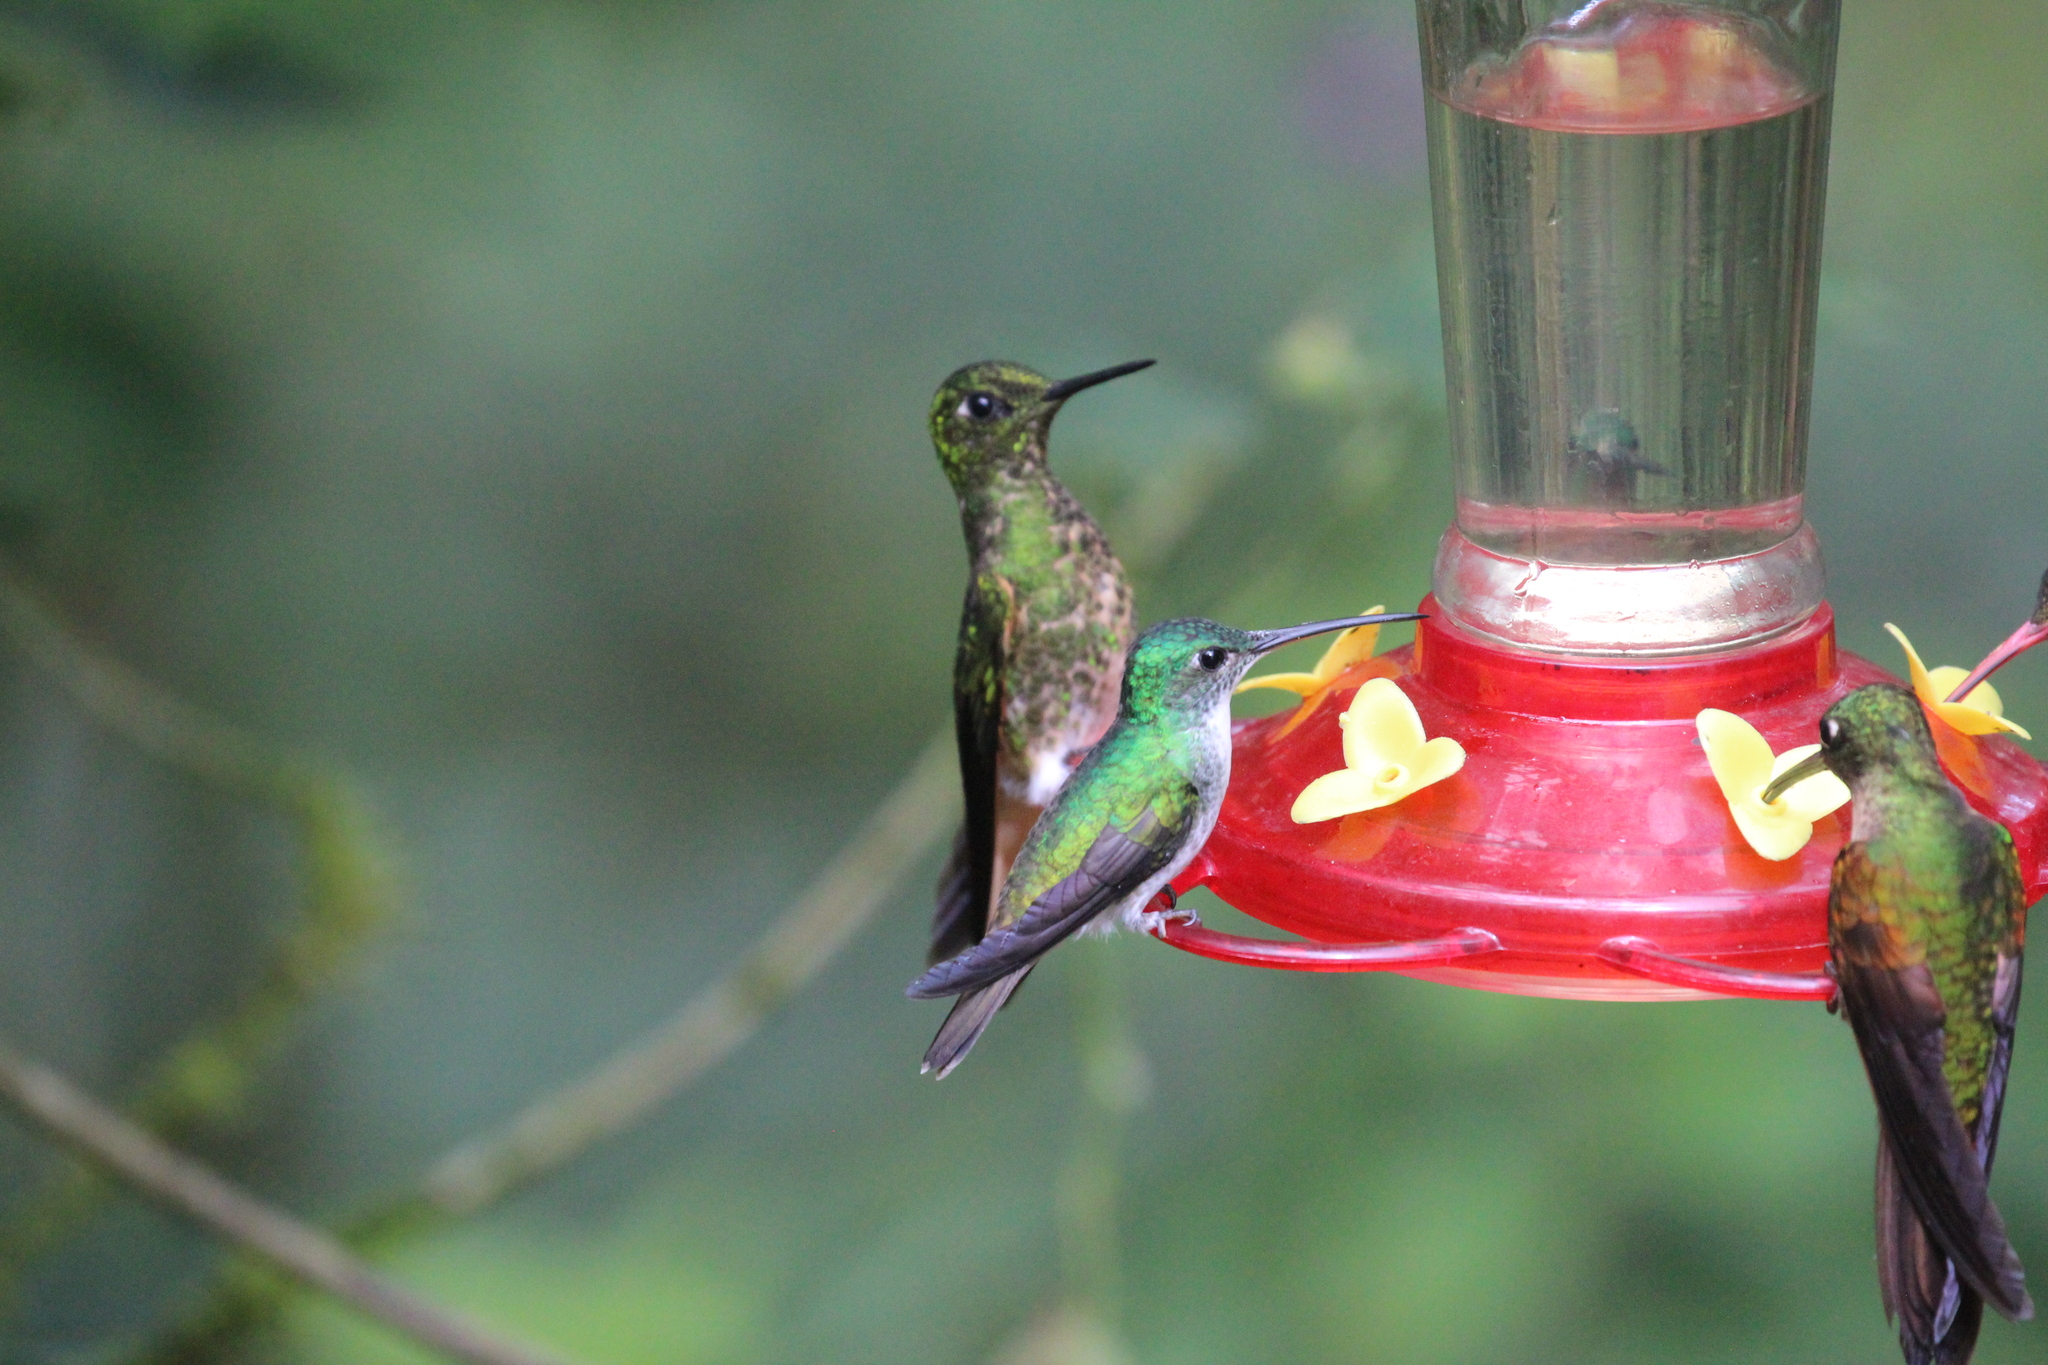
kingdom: Animalia
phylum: Chordata
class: Aves
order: Apodiformes
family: Trochilidae
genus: Boissonneaua
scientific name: Boissonneaua flavescens
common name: Buff-tailed coronet
